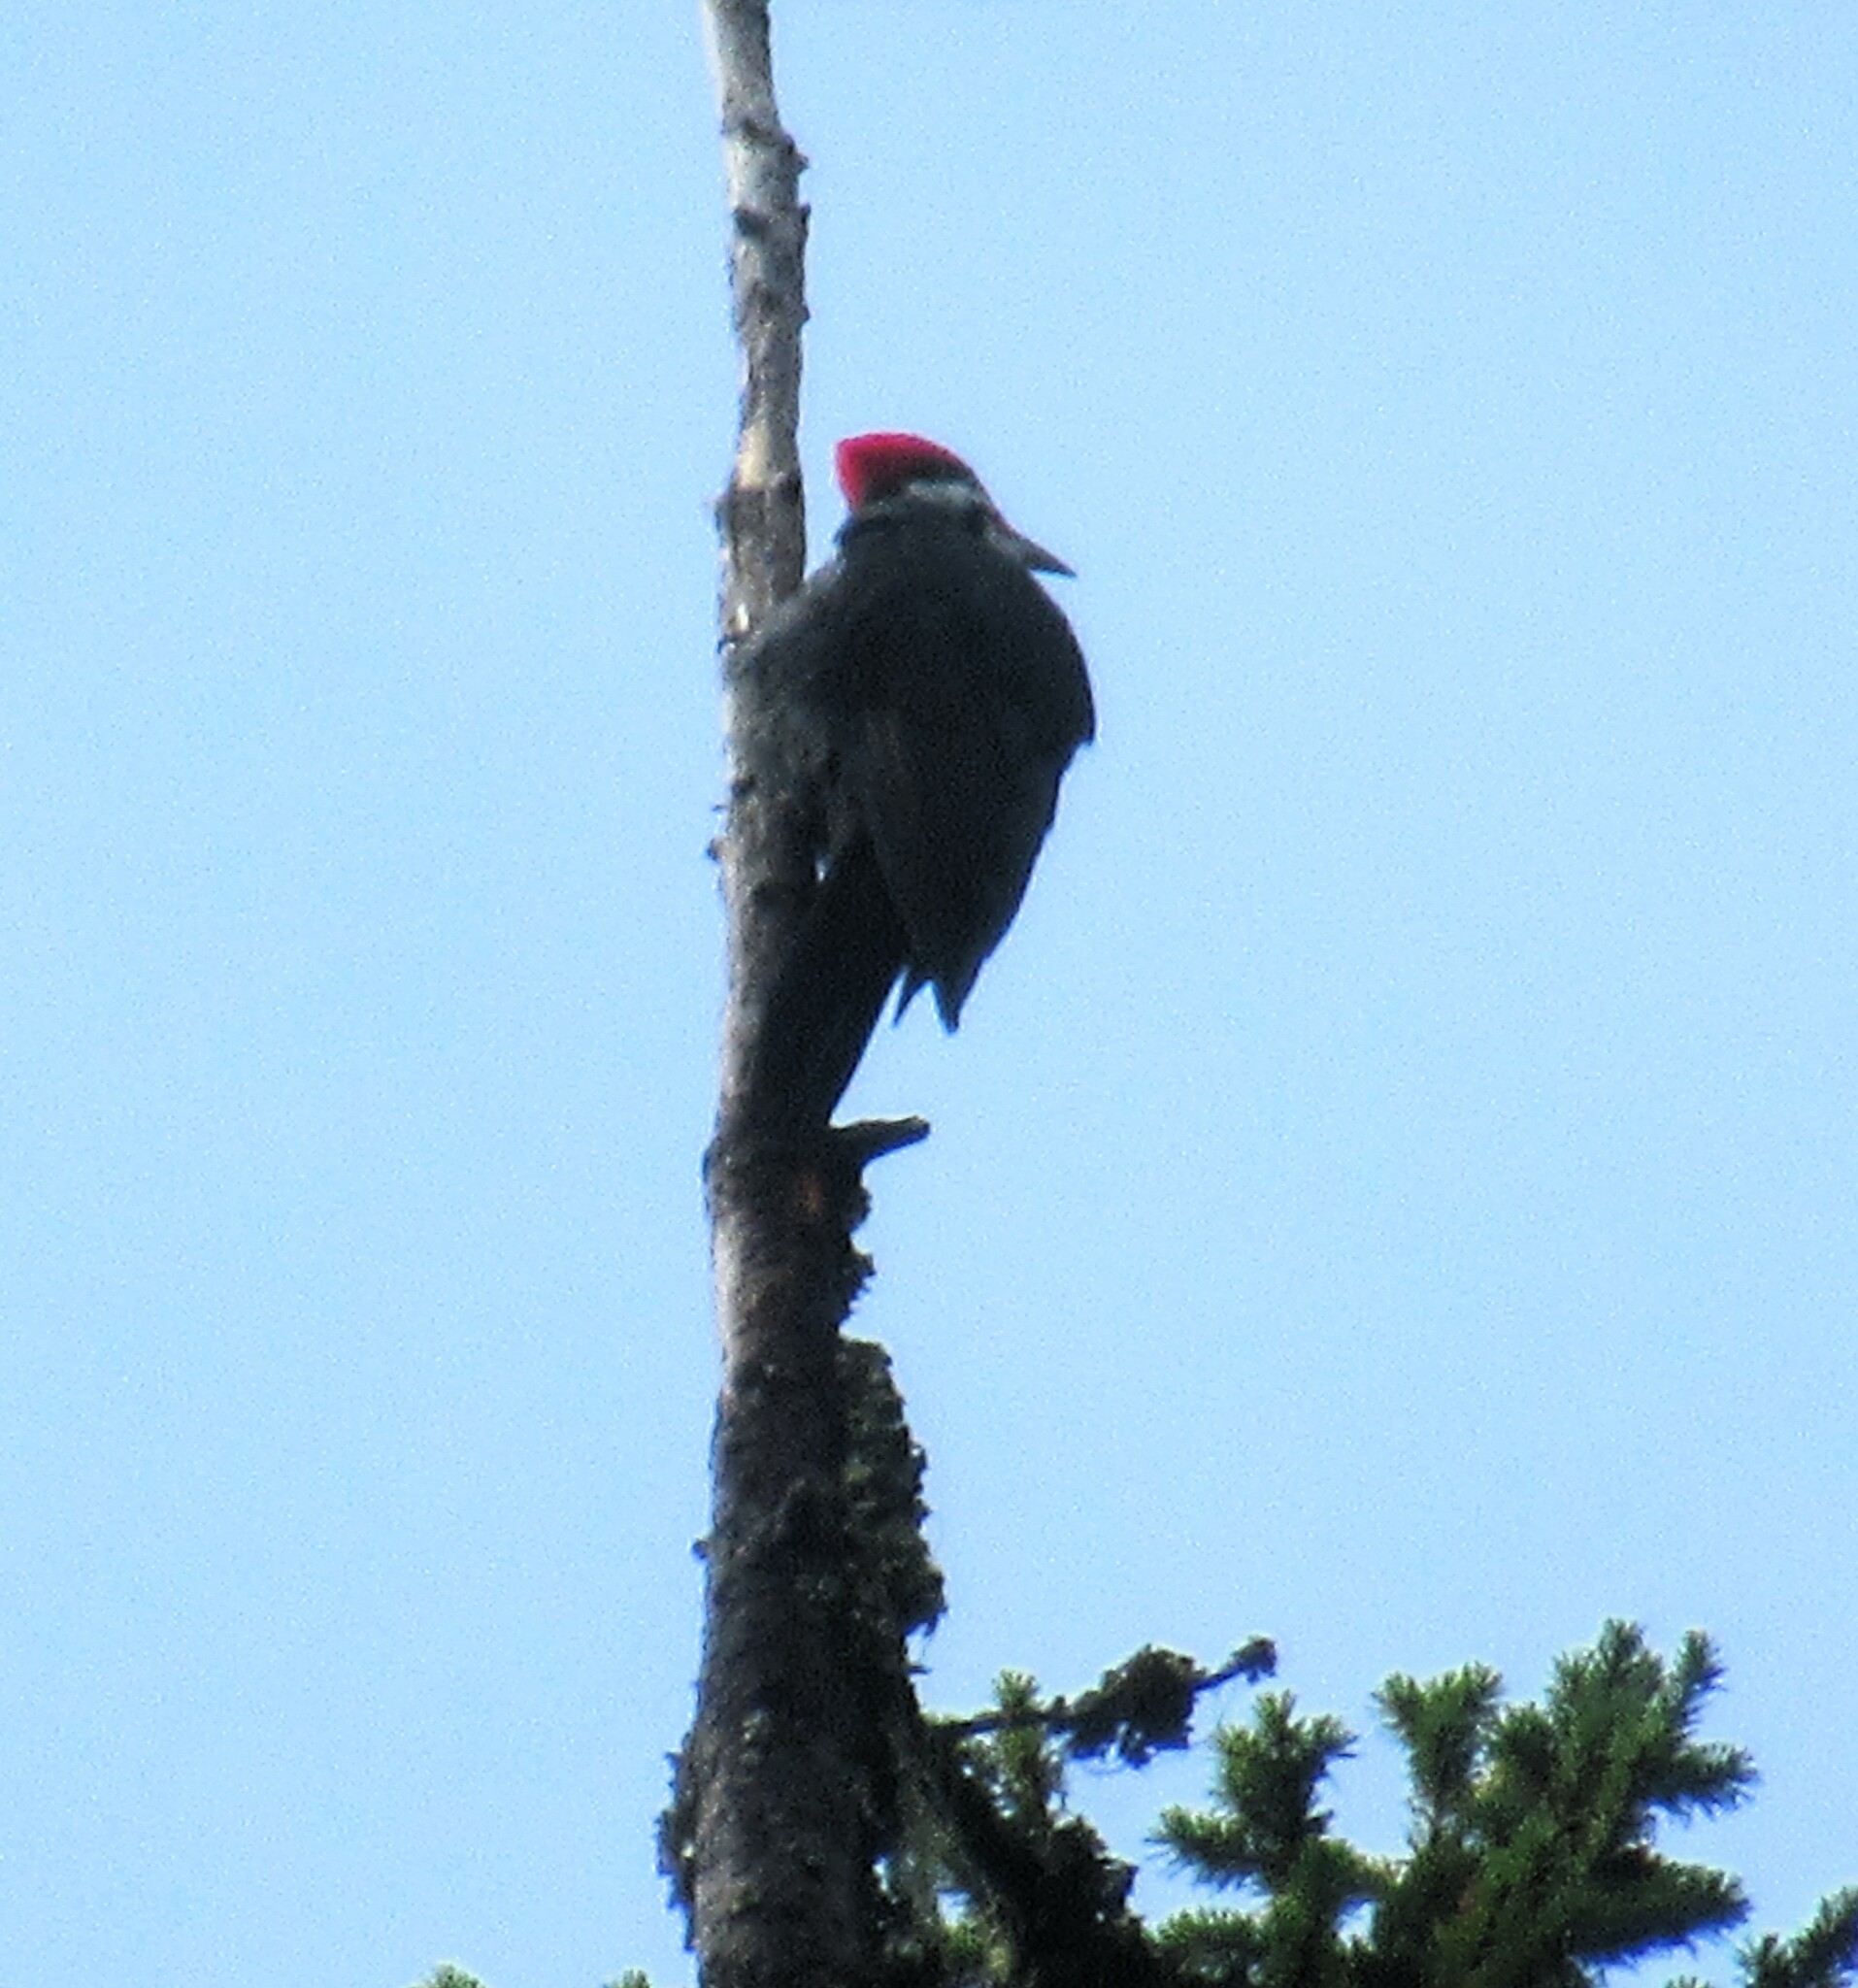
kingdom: Animalia
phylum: Chordata
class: Aves
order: Piciformes
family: Picidae
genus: Dryocopus
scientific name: Dryocopus pileatus
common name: Pileated woodpecker
